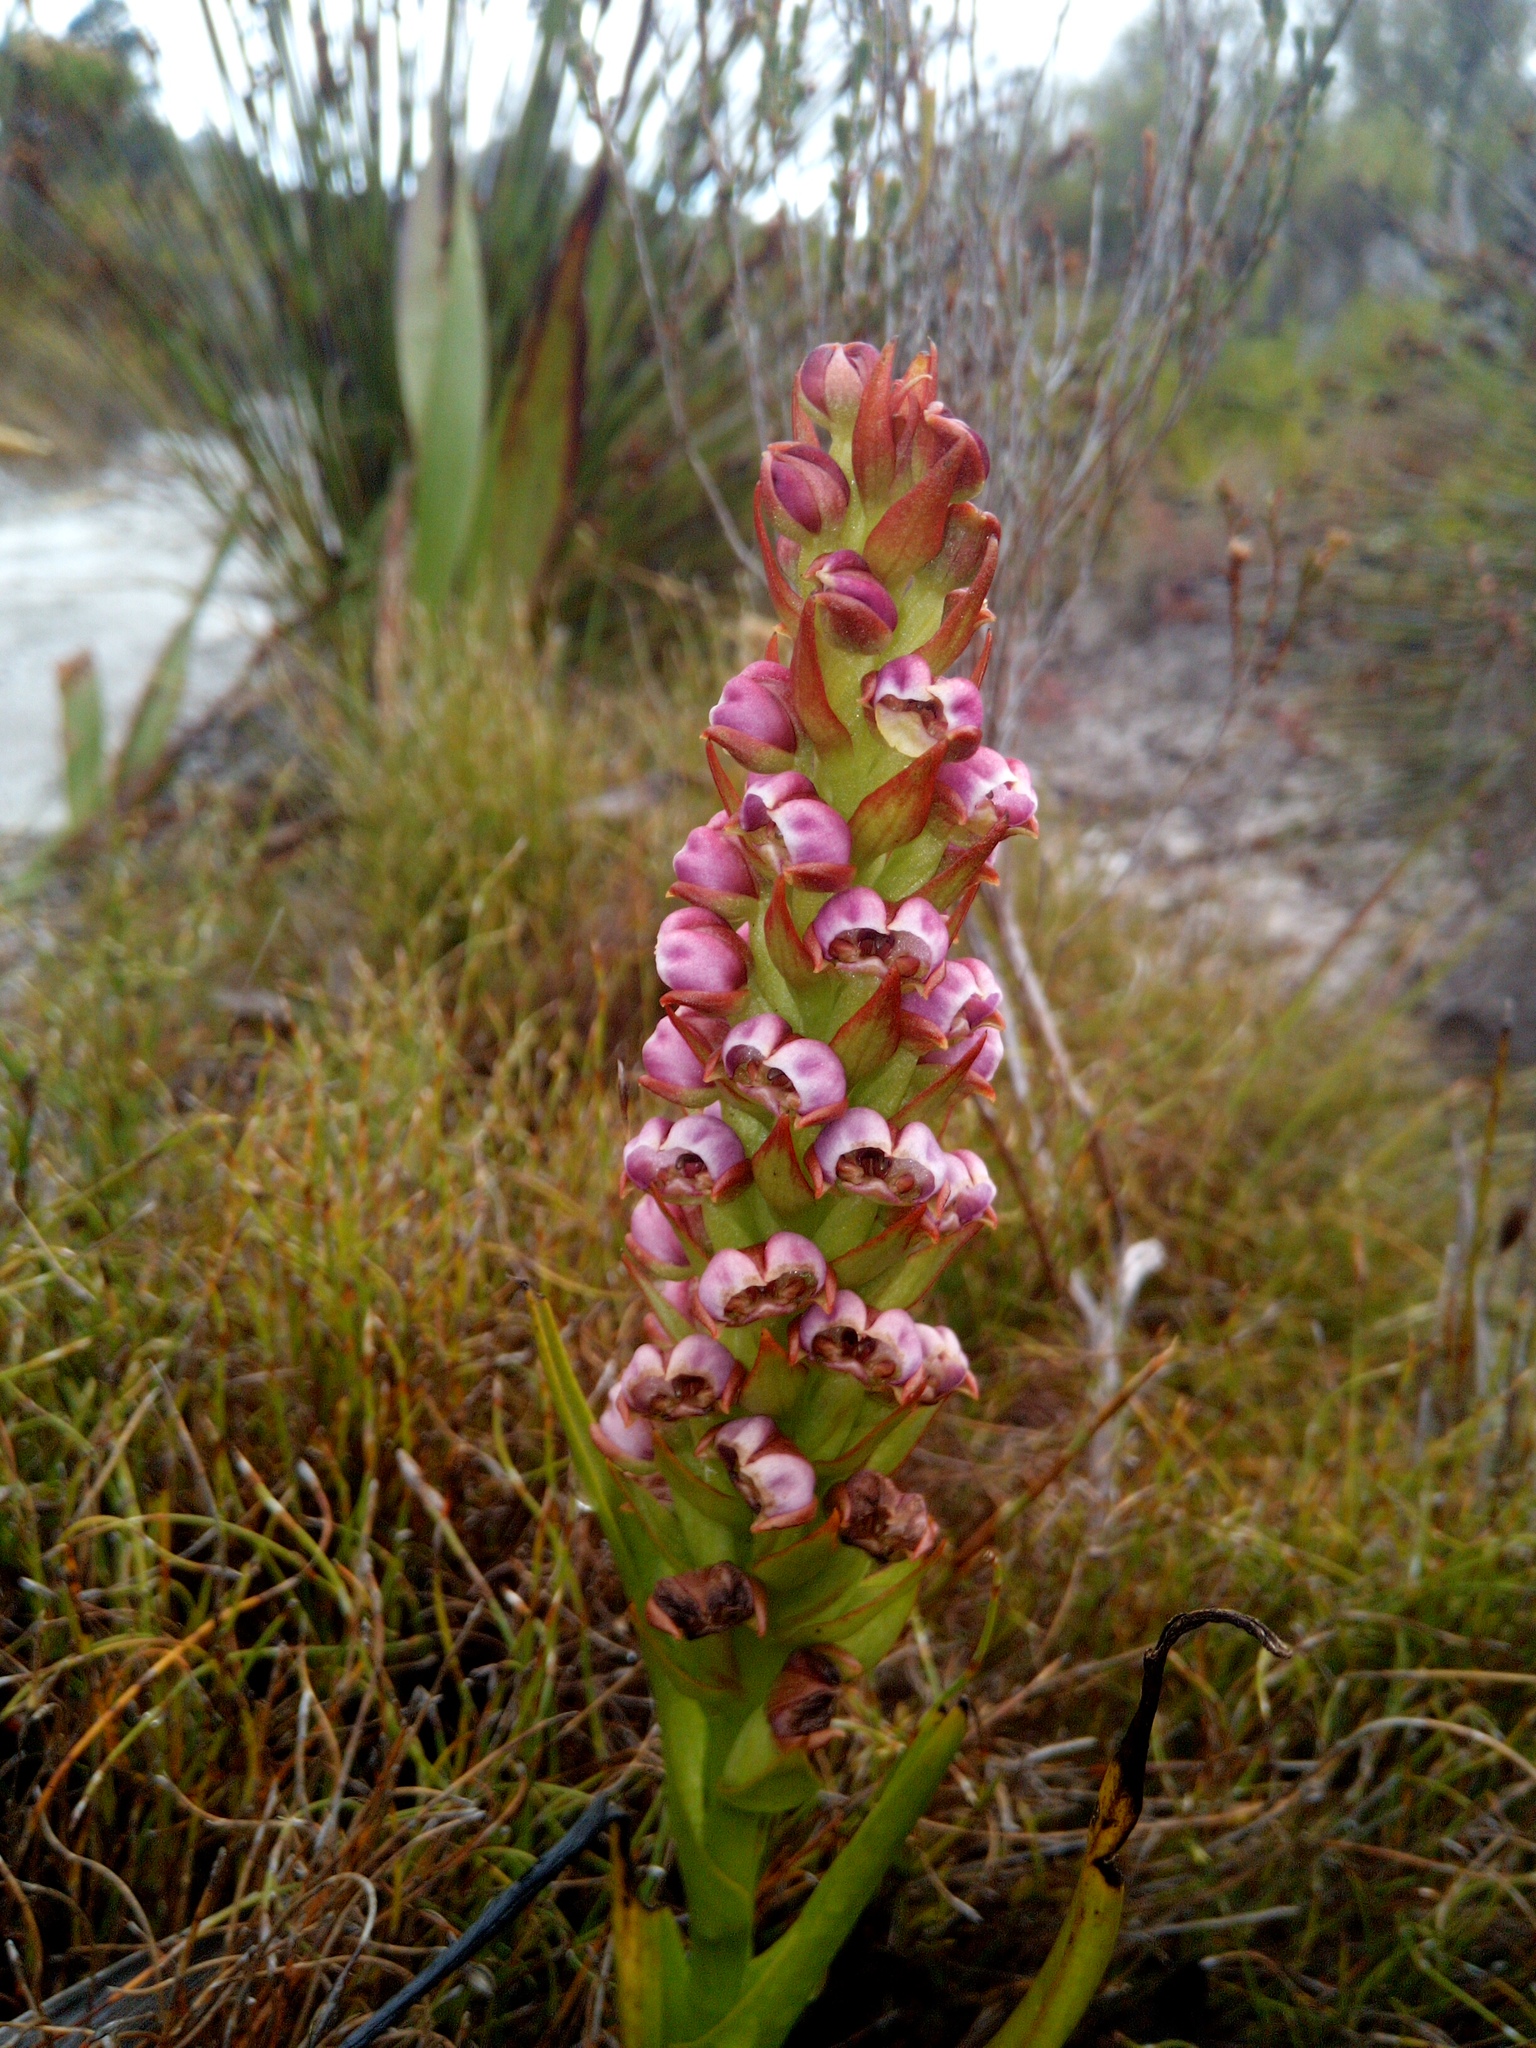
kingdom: Plantae
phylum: Tracheophyta
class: Liliopsida
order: Asparagales
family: Orchidaceae
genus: Evotella
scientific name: Evotella carnosa
